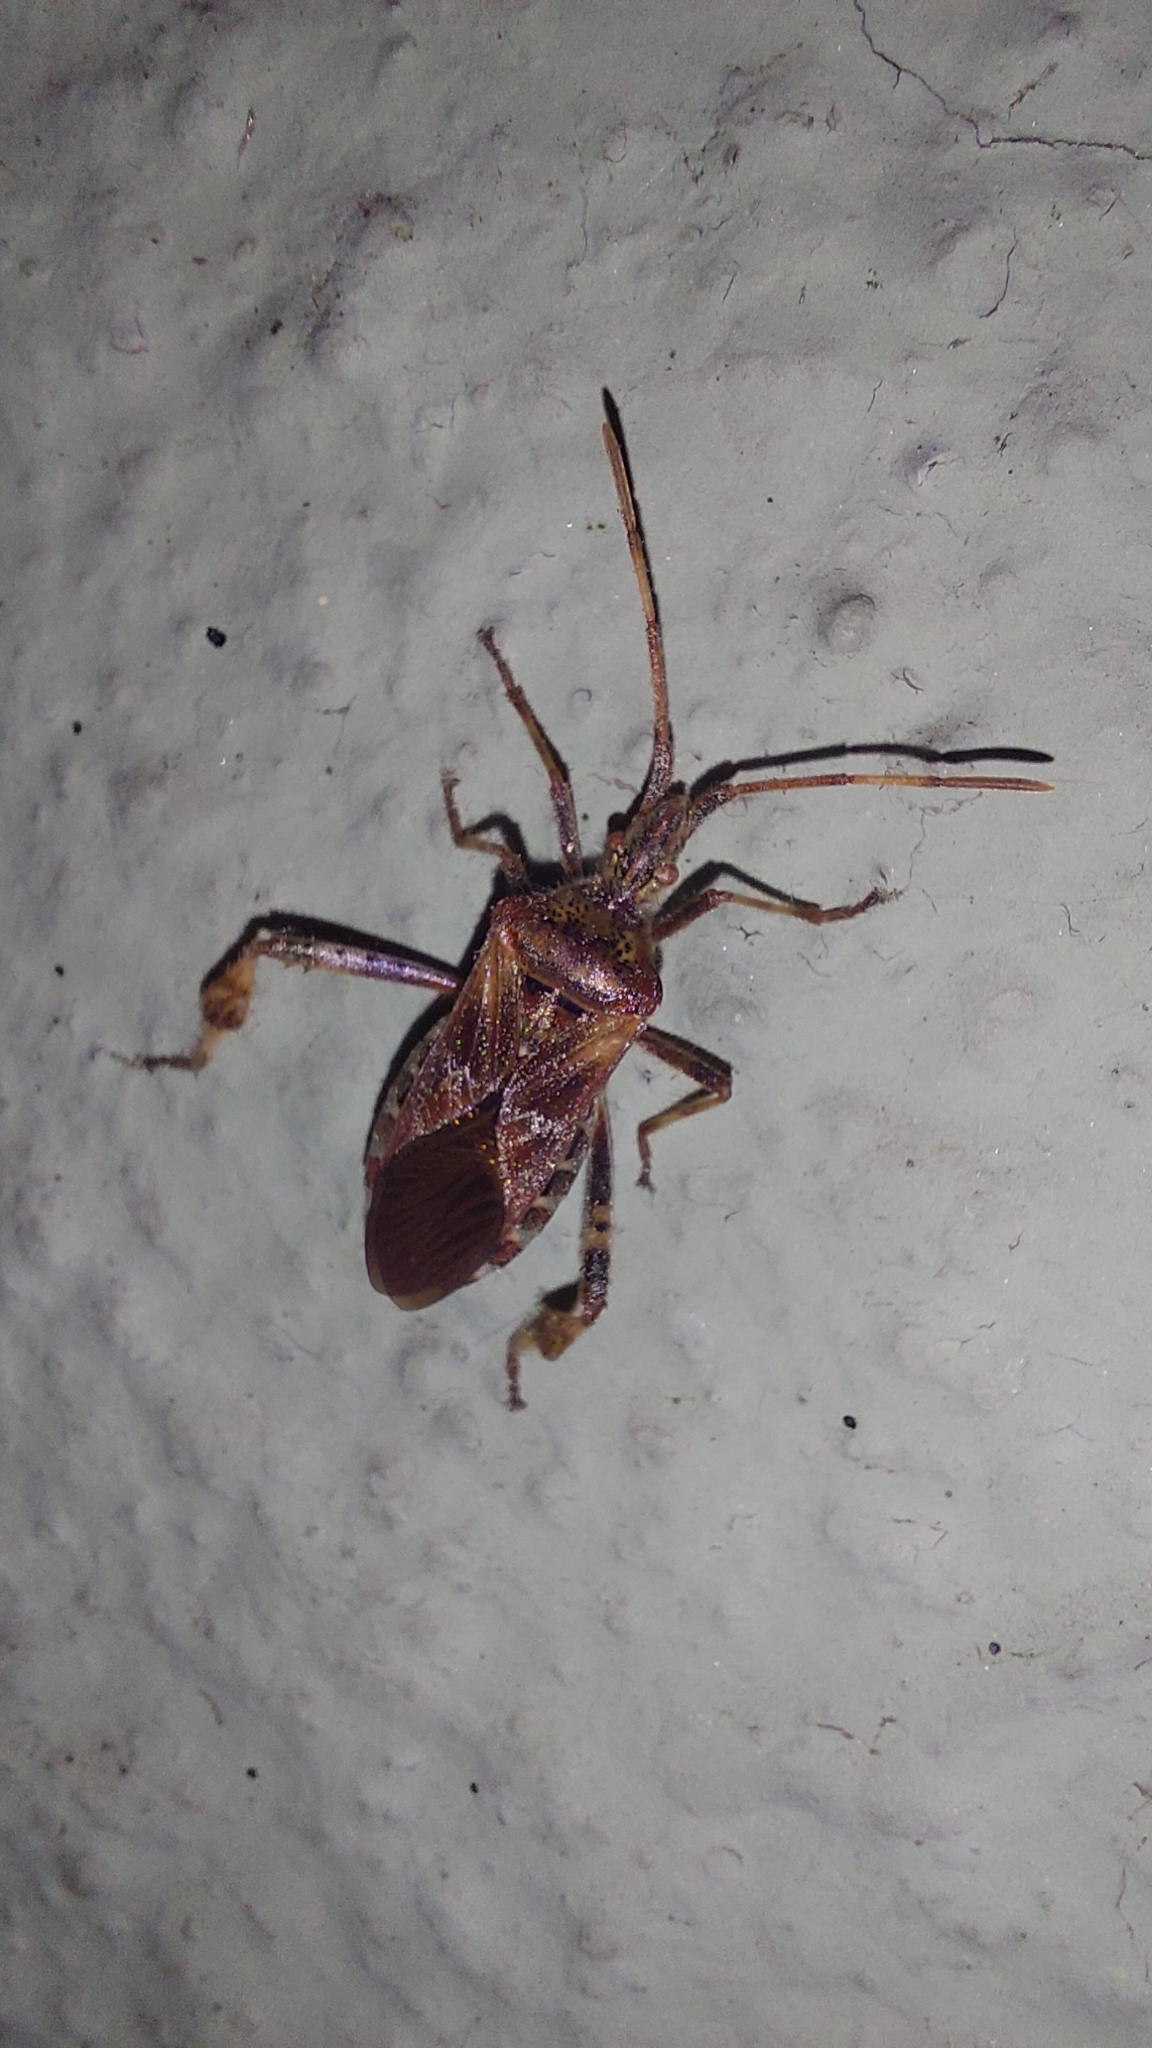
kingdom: Animalia
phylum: Arthropoda
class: Insecta
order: Hemiptera
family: Coreidae
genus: Leptoglossus
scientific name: Leptoglossus occidentalis
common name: Western conifer-seed bug
